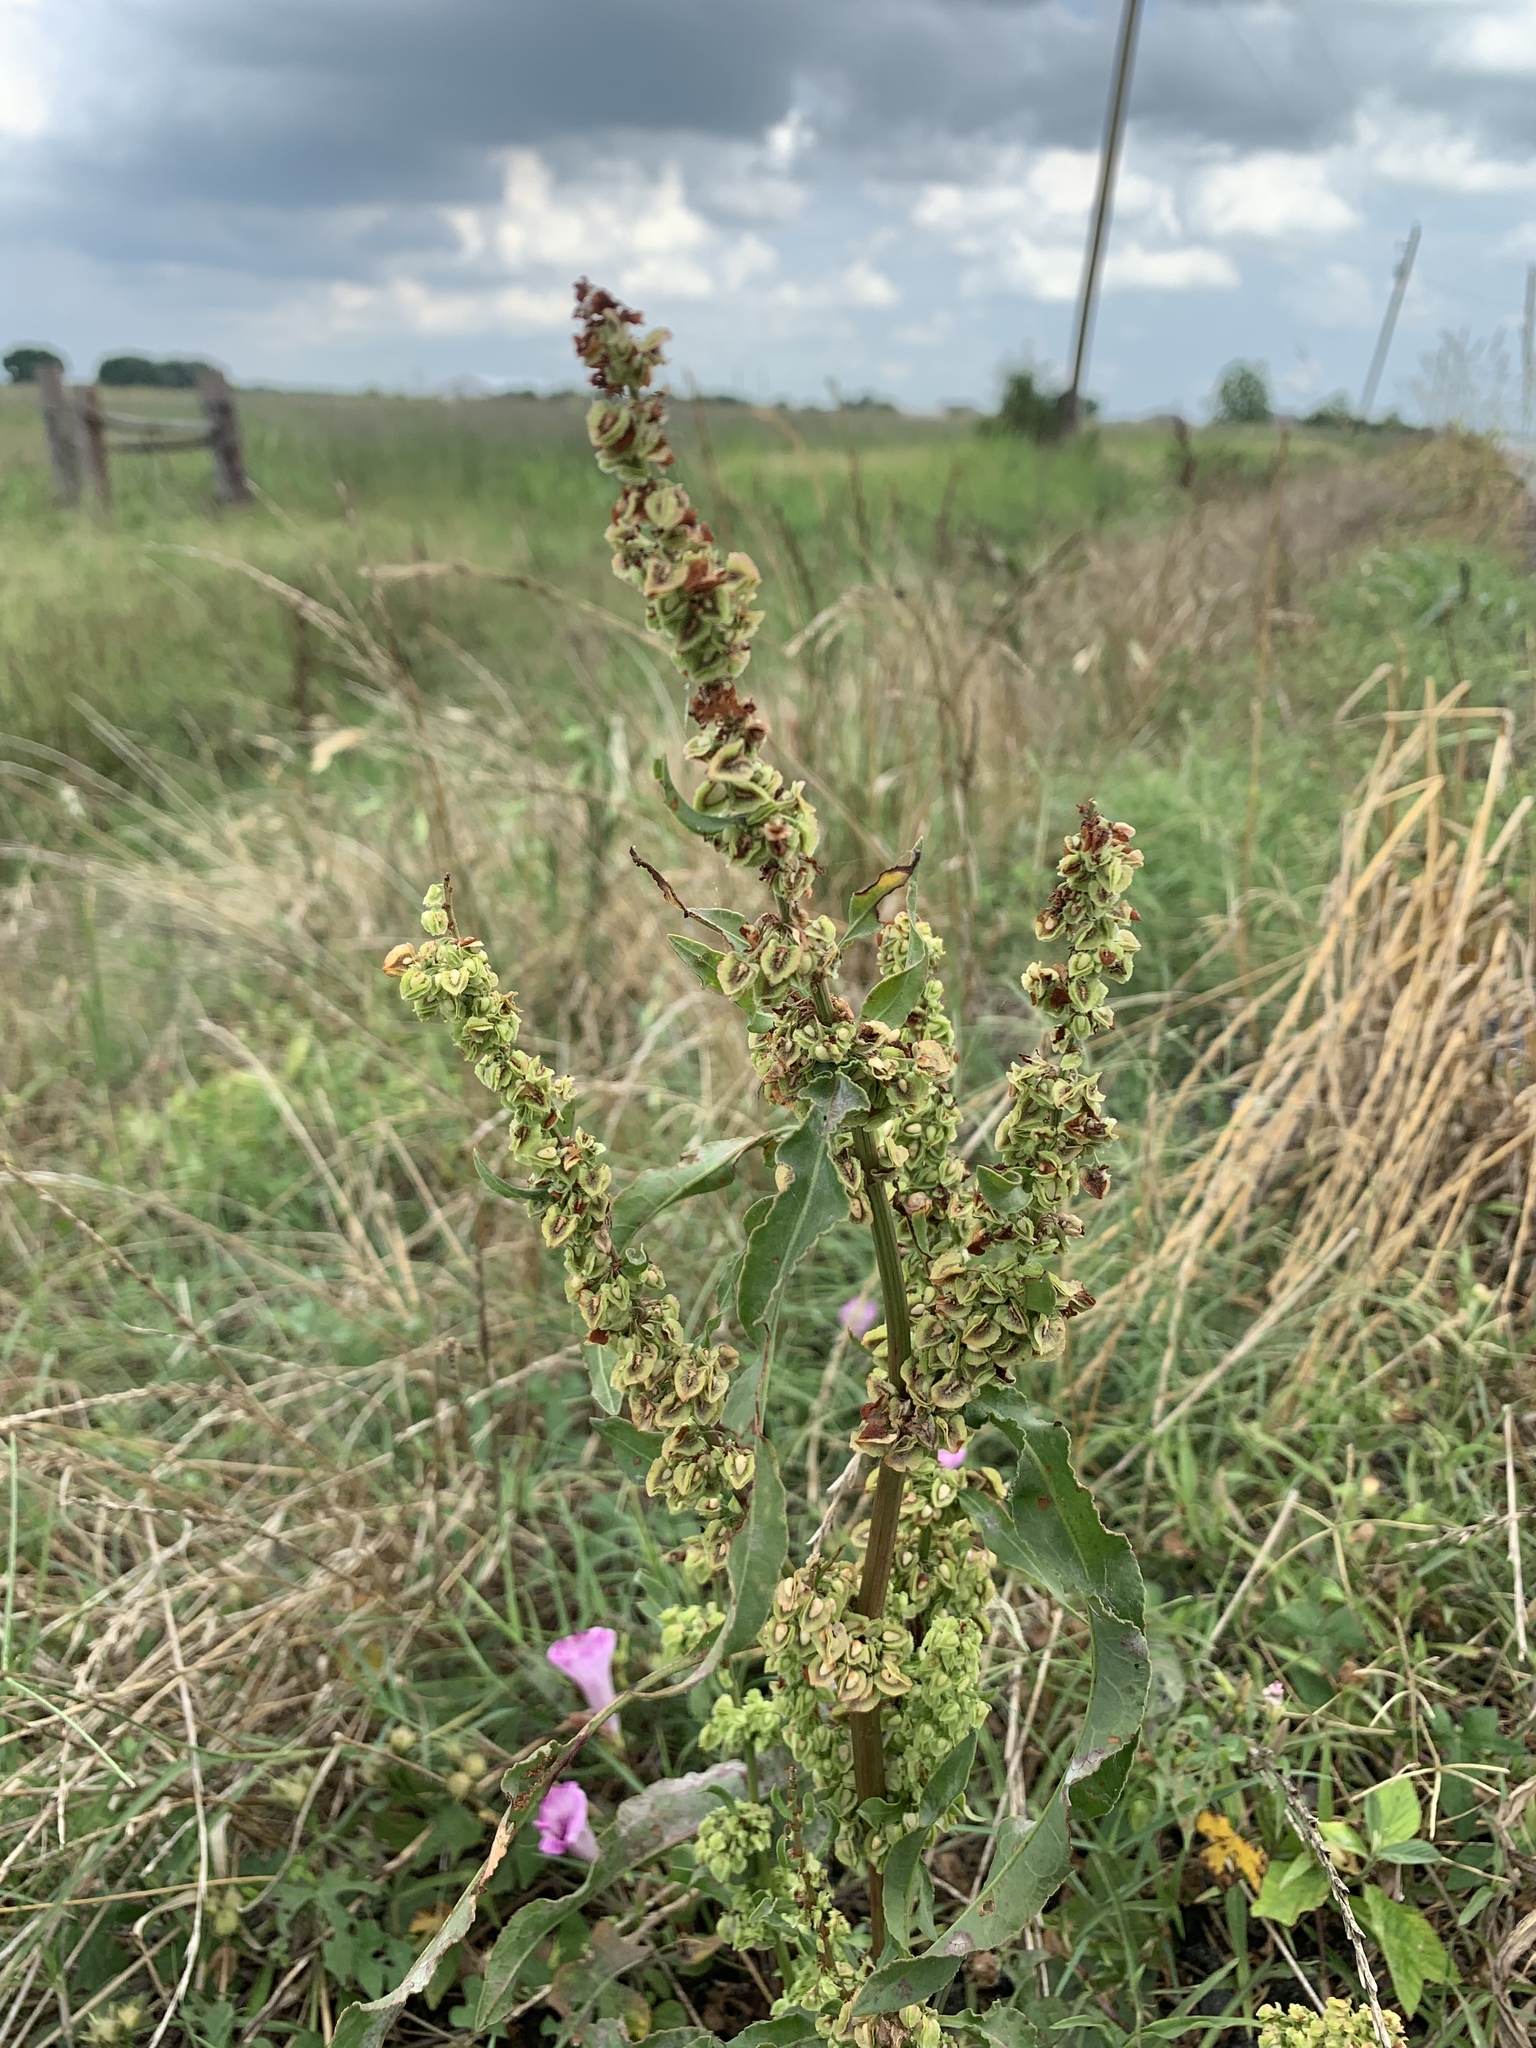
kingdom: Plantae
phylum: Tracheophyta
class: Magnoliopsida
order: Caryophyllales
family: Polygonaceae
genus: Rumex
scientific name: Rumex crispus
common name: Curled dock
